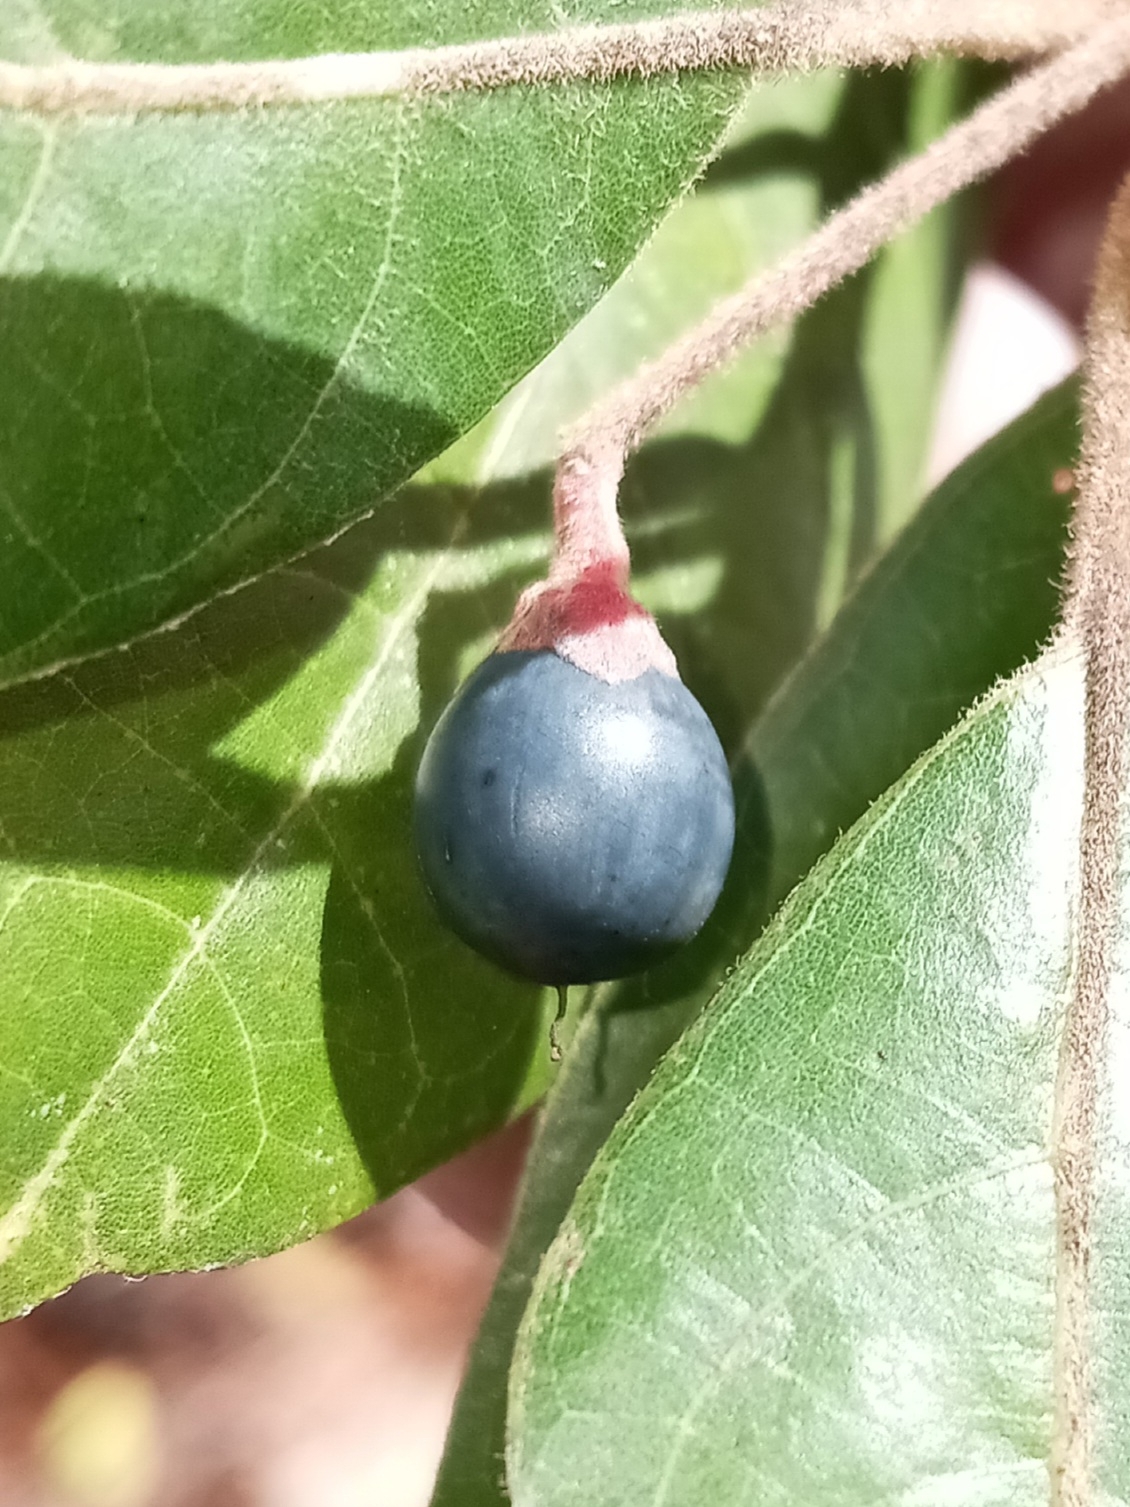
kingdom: Plantae
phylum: Tracheophyta
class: Magnoliopsida
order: Laurales
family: Lauraceae
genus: Persea
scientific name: Persea palustris
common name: Swampbay
